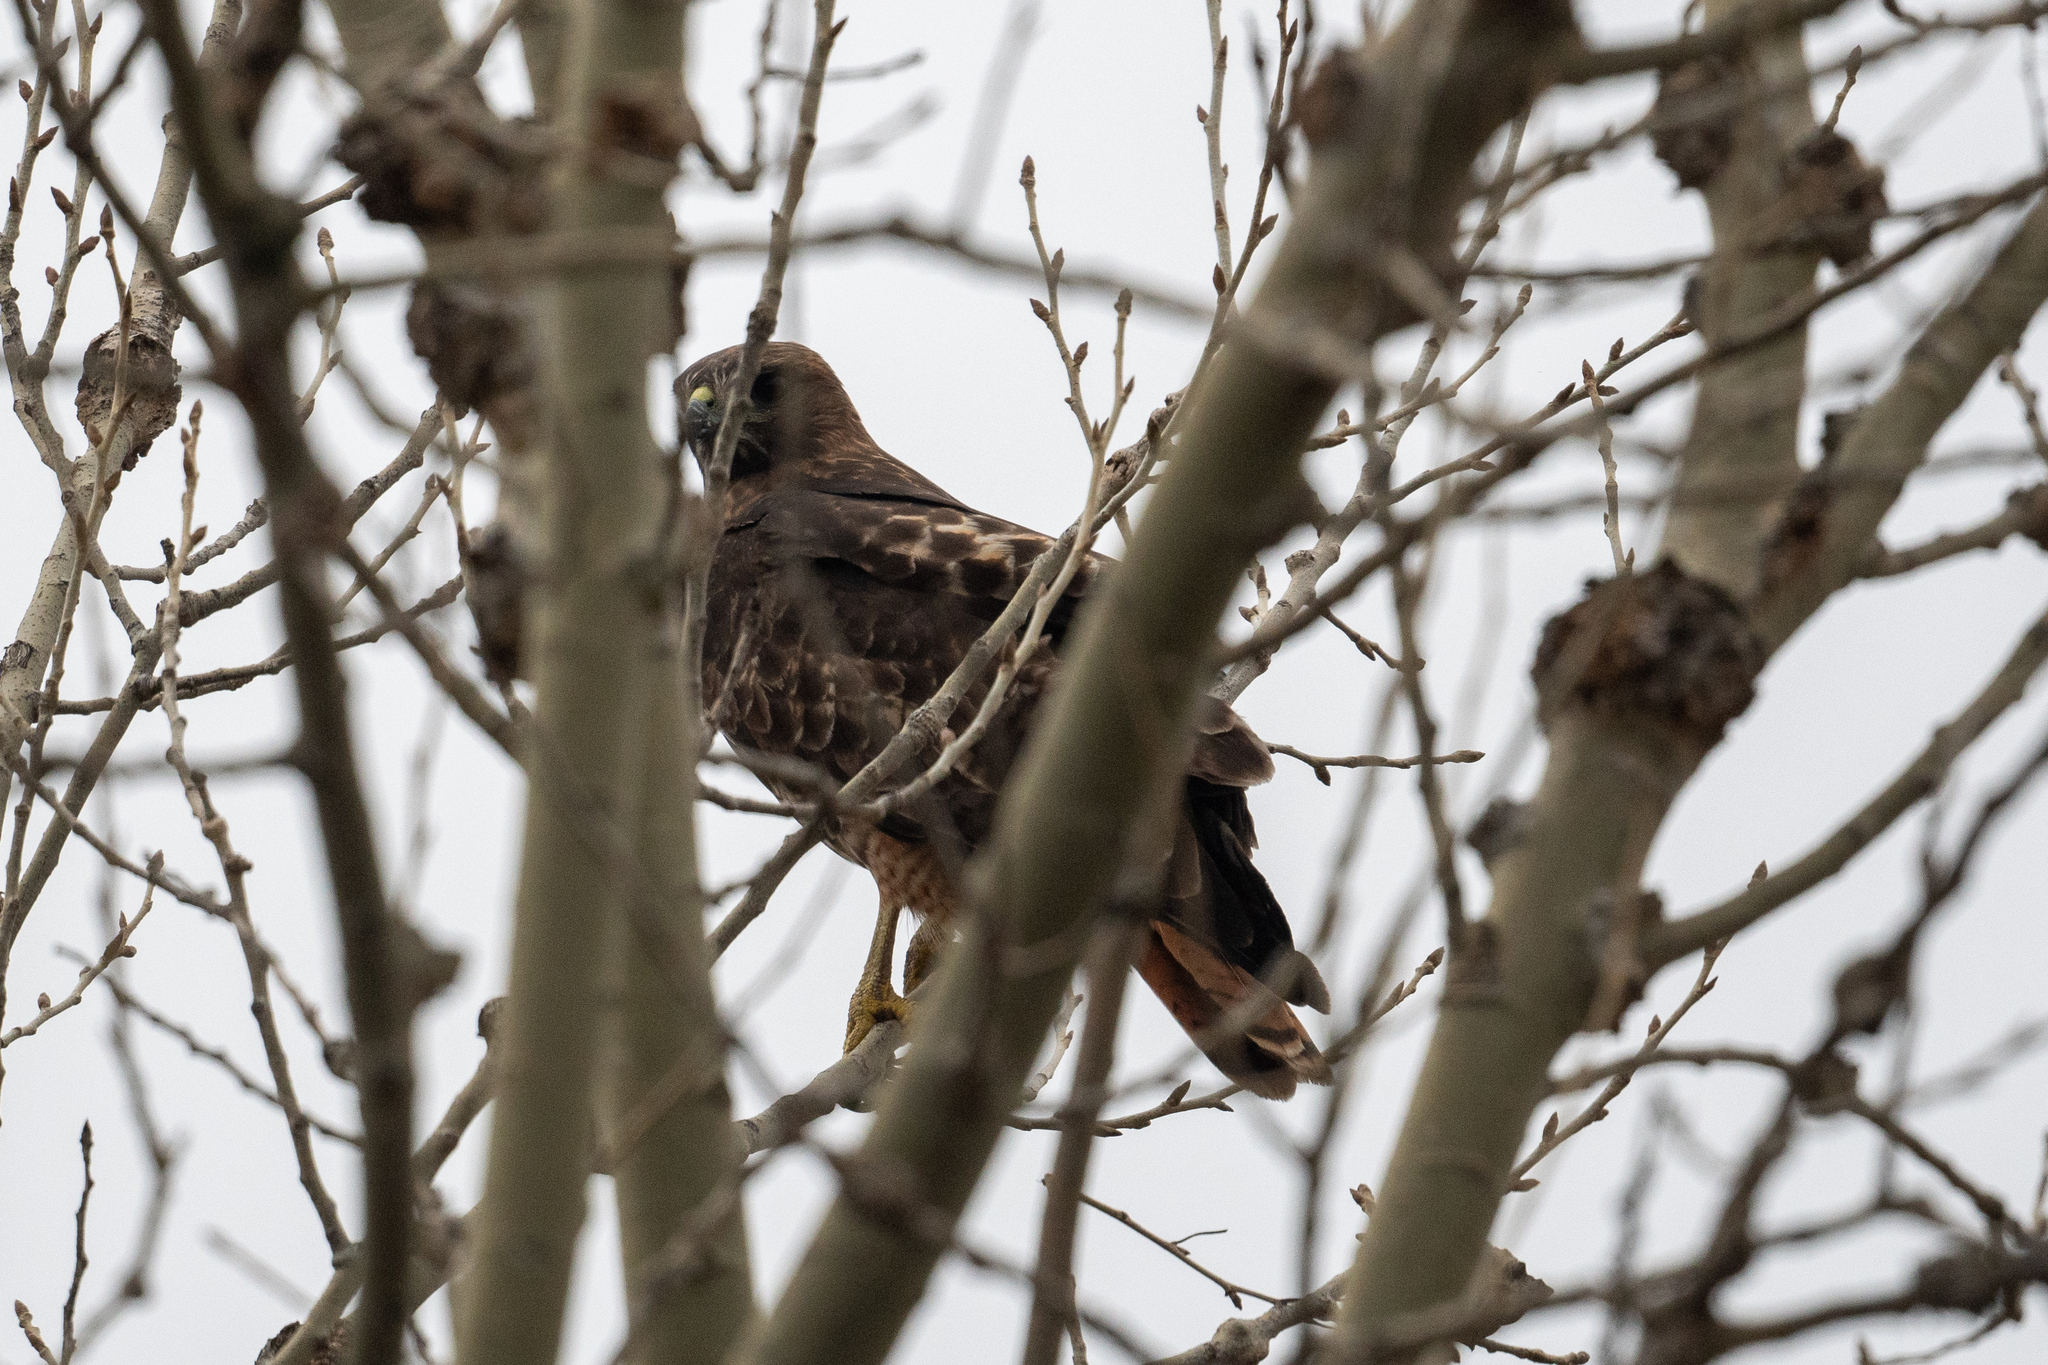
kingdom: Animalia
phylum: Chordata
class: Aves
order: Accipitriformes
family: Accipitridae
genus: Buteo
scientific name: Buteo jamaicensis
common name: Red-tailed hawk
